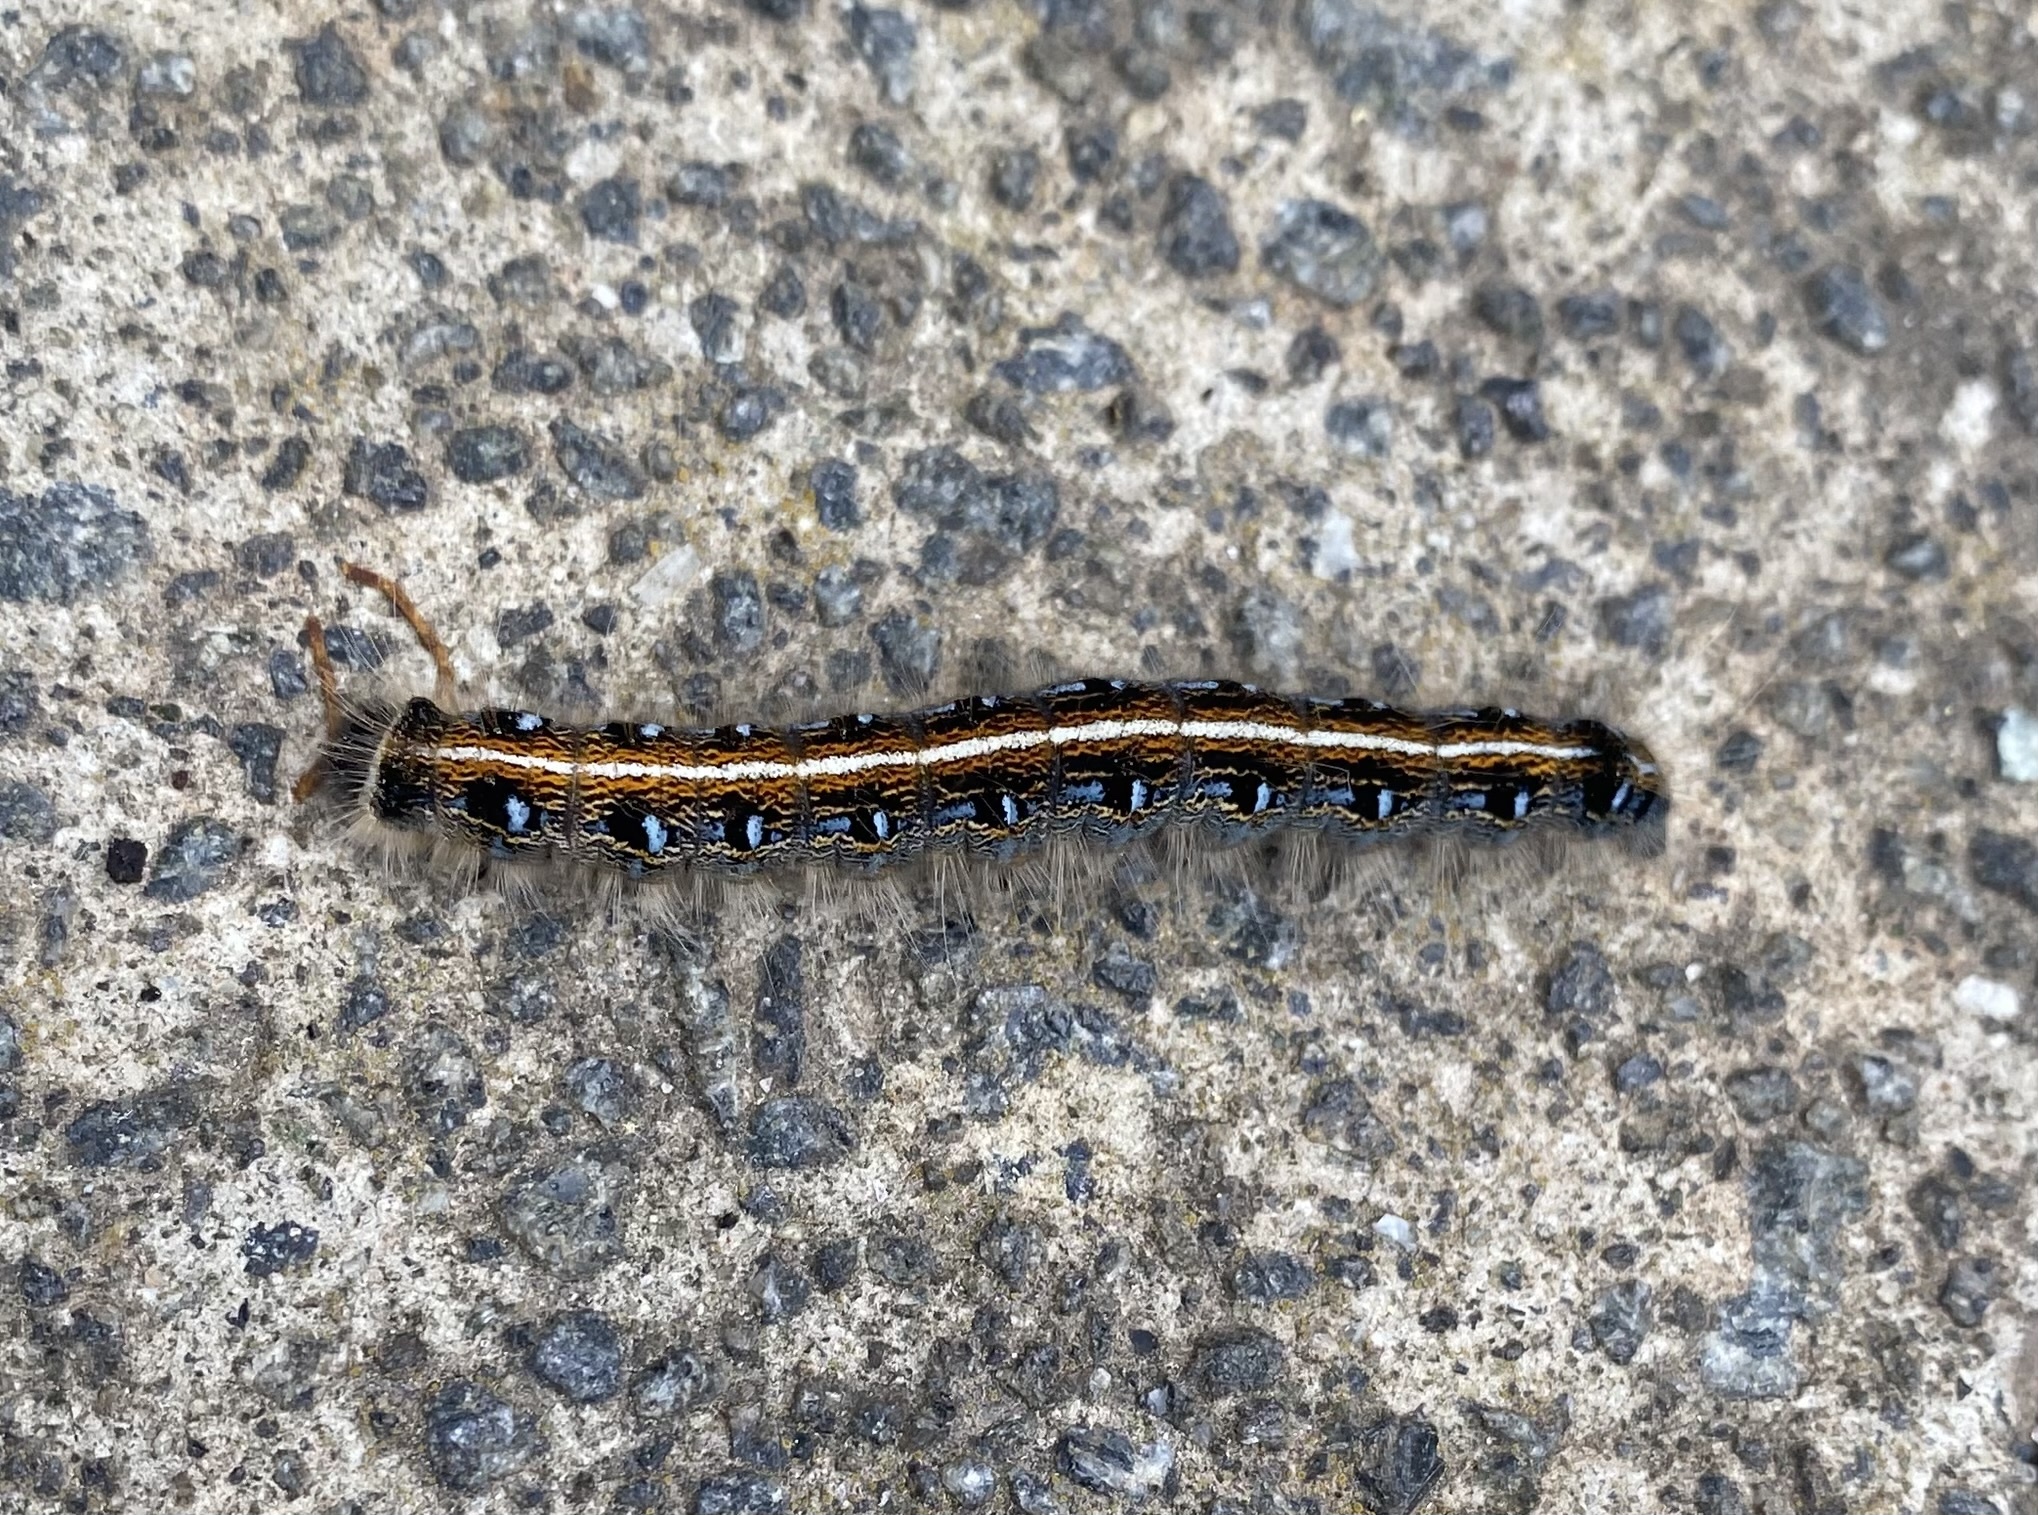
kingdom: Animalia
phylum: Arthropoda
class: Insecta
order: Lepidoptera
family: Lasiocampidae
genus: Malacosoma
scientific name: Malacosoma americana
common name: Eastern tent caterpillar moth
